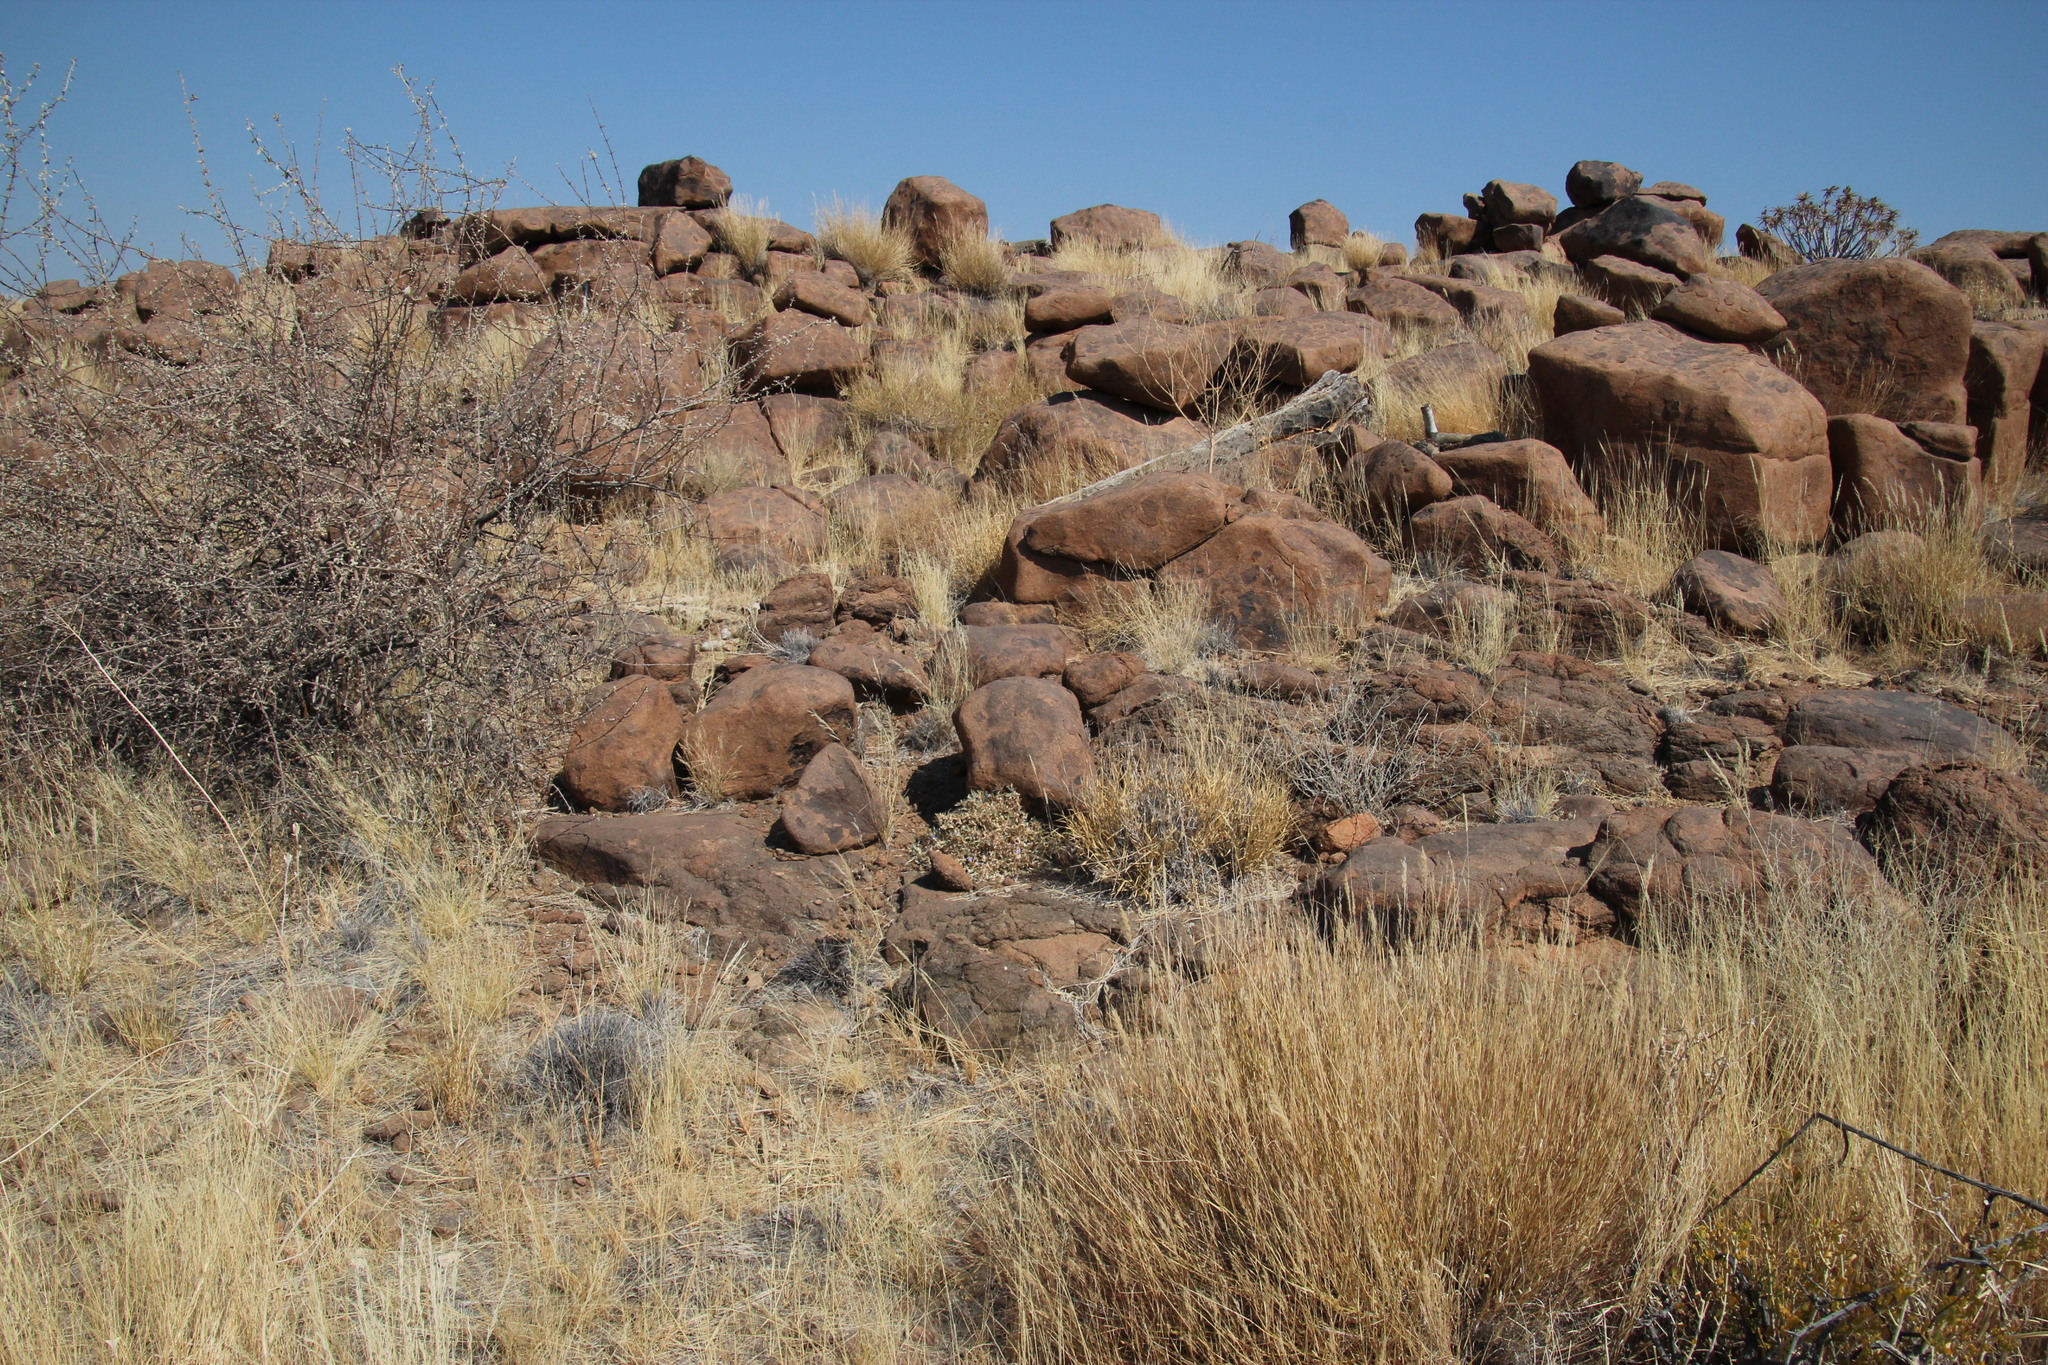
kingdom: Plantae
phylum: Tracheophyta
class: Magnoliopsida
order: Lamiales
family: Acanthaceae
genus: Blepharis
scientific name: Blepharis mitrata
